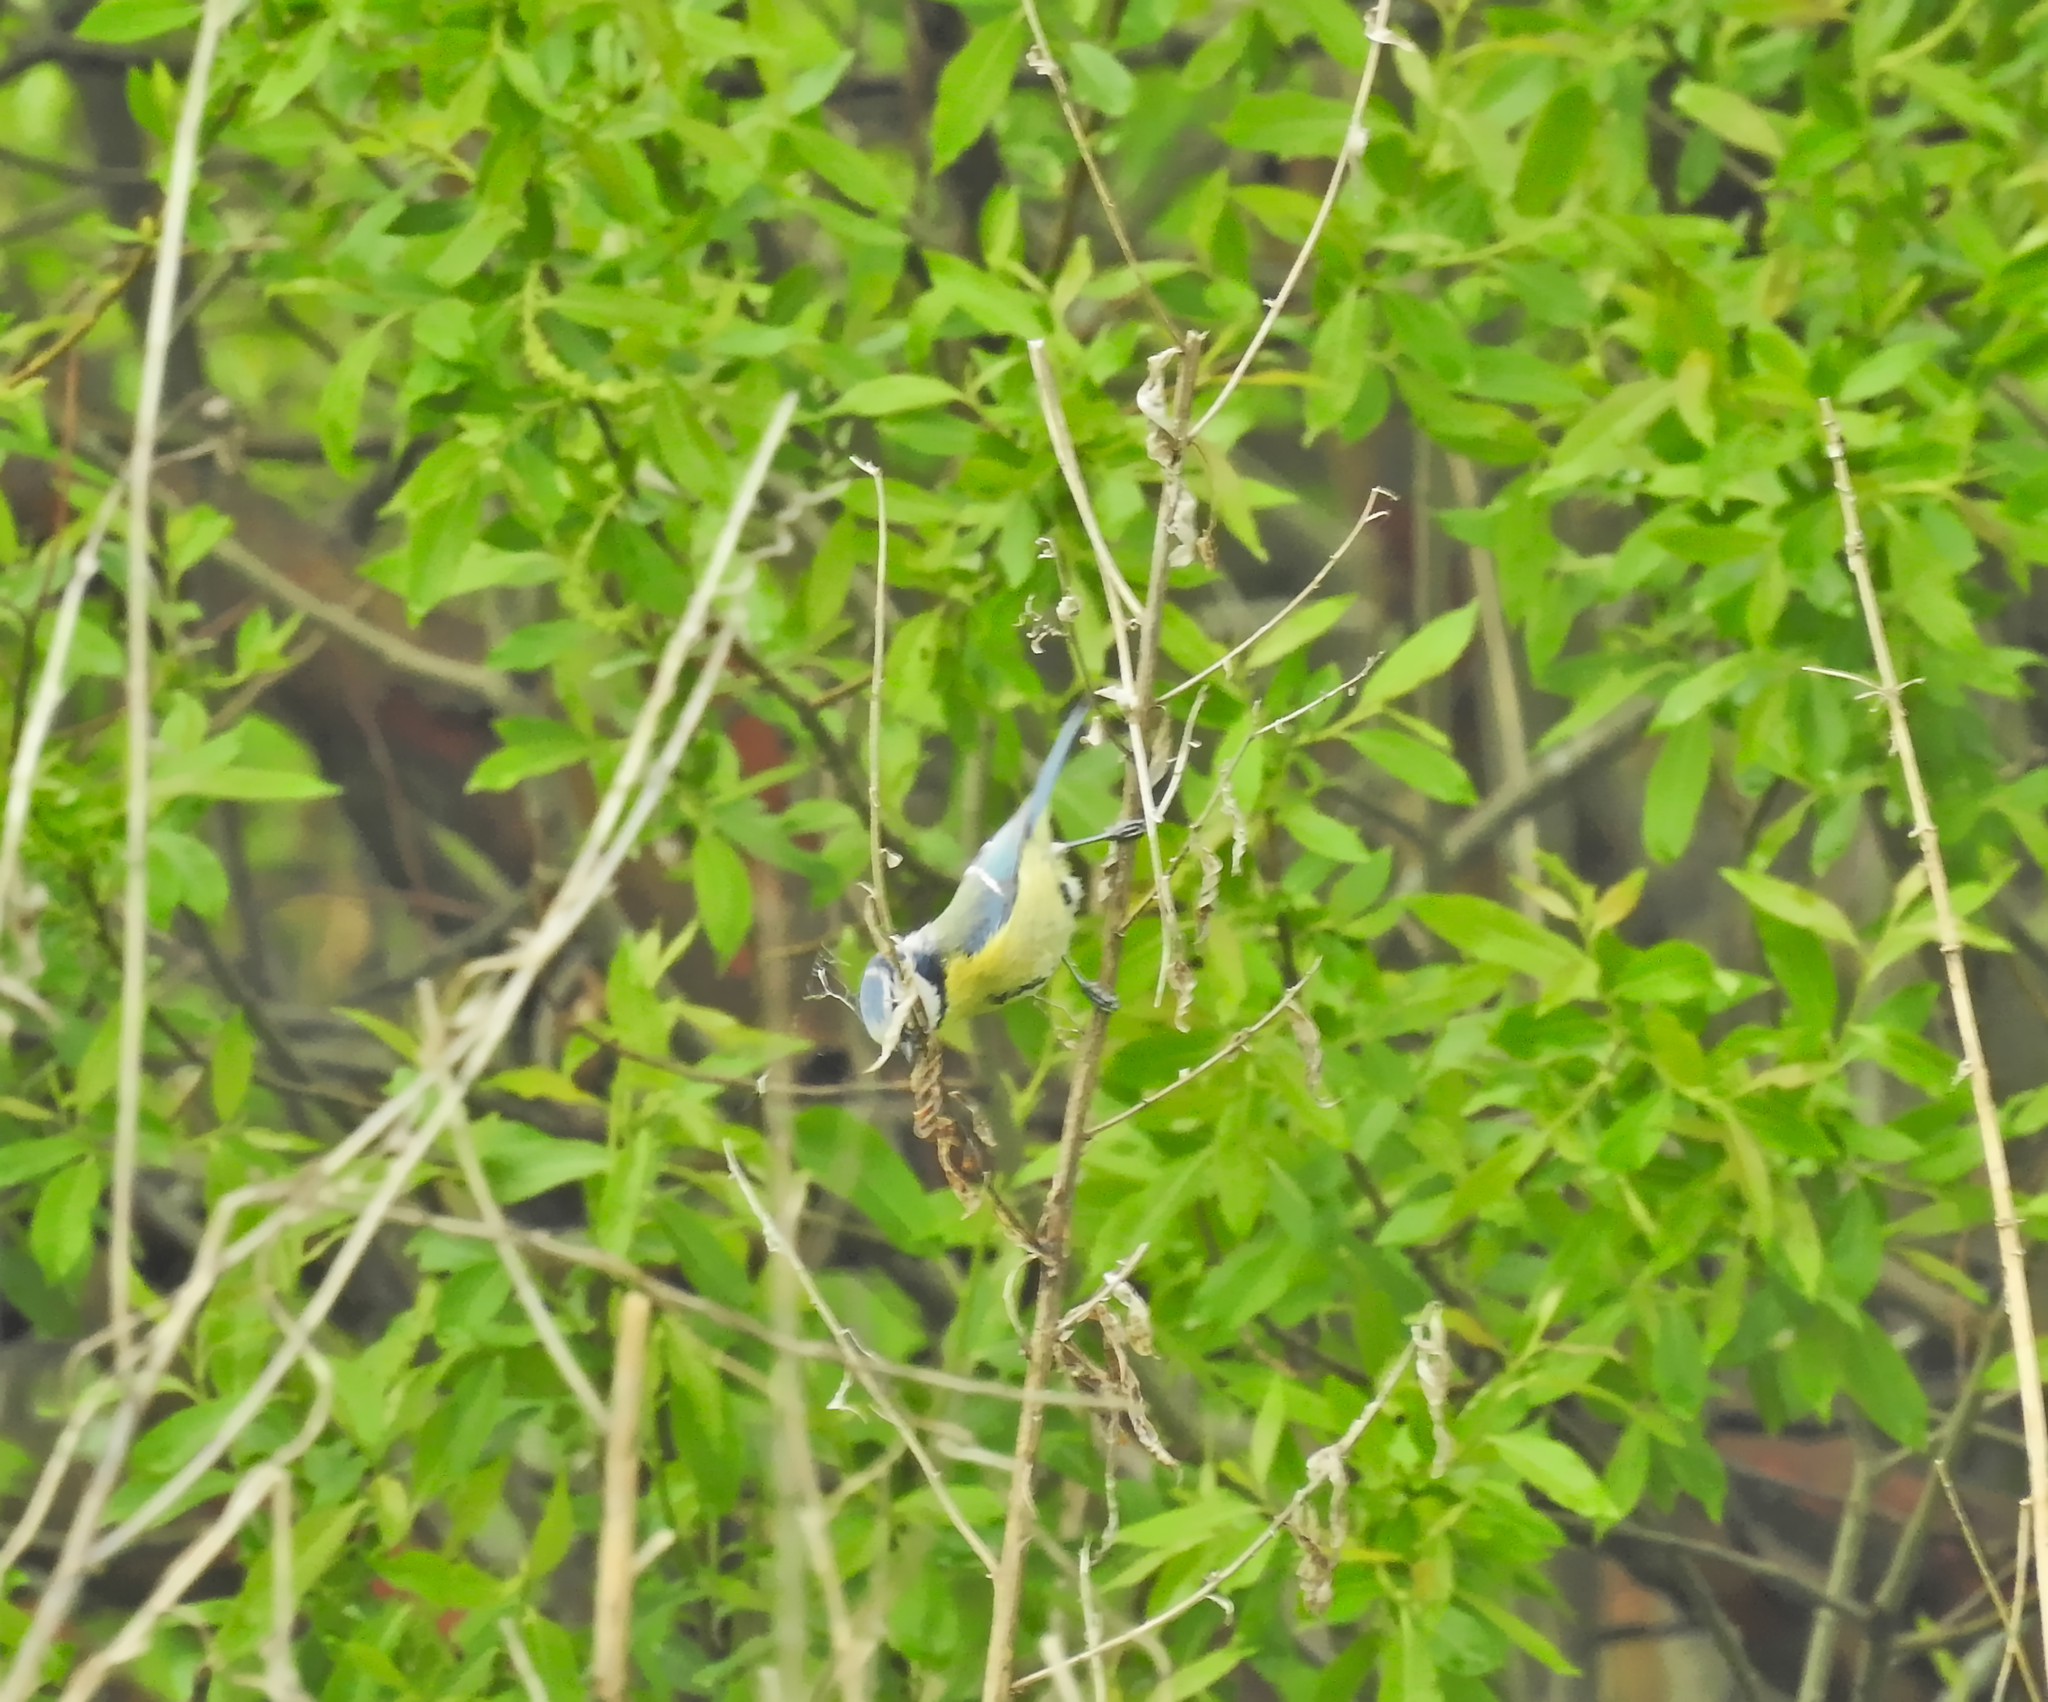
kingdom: Animalia
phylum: Chordata
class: Aves
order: Passeriformes
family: Paridae
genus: Cyanistes
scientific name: Cyanistes caeruleus
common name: Eurasian blue tit
